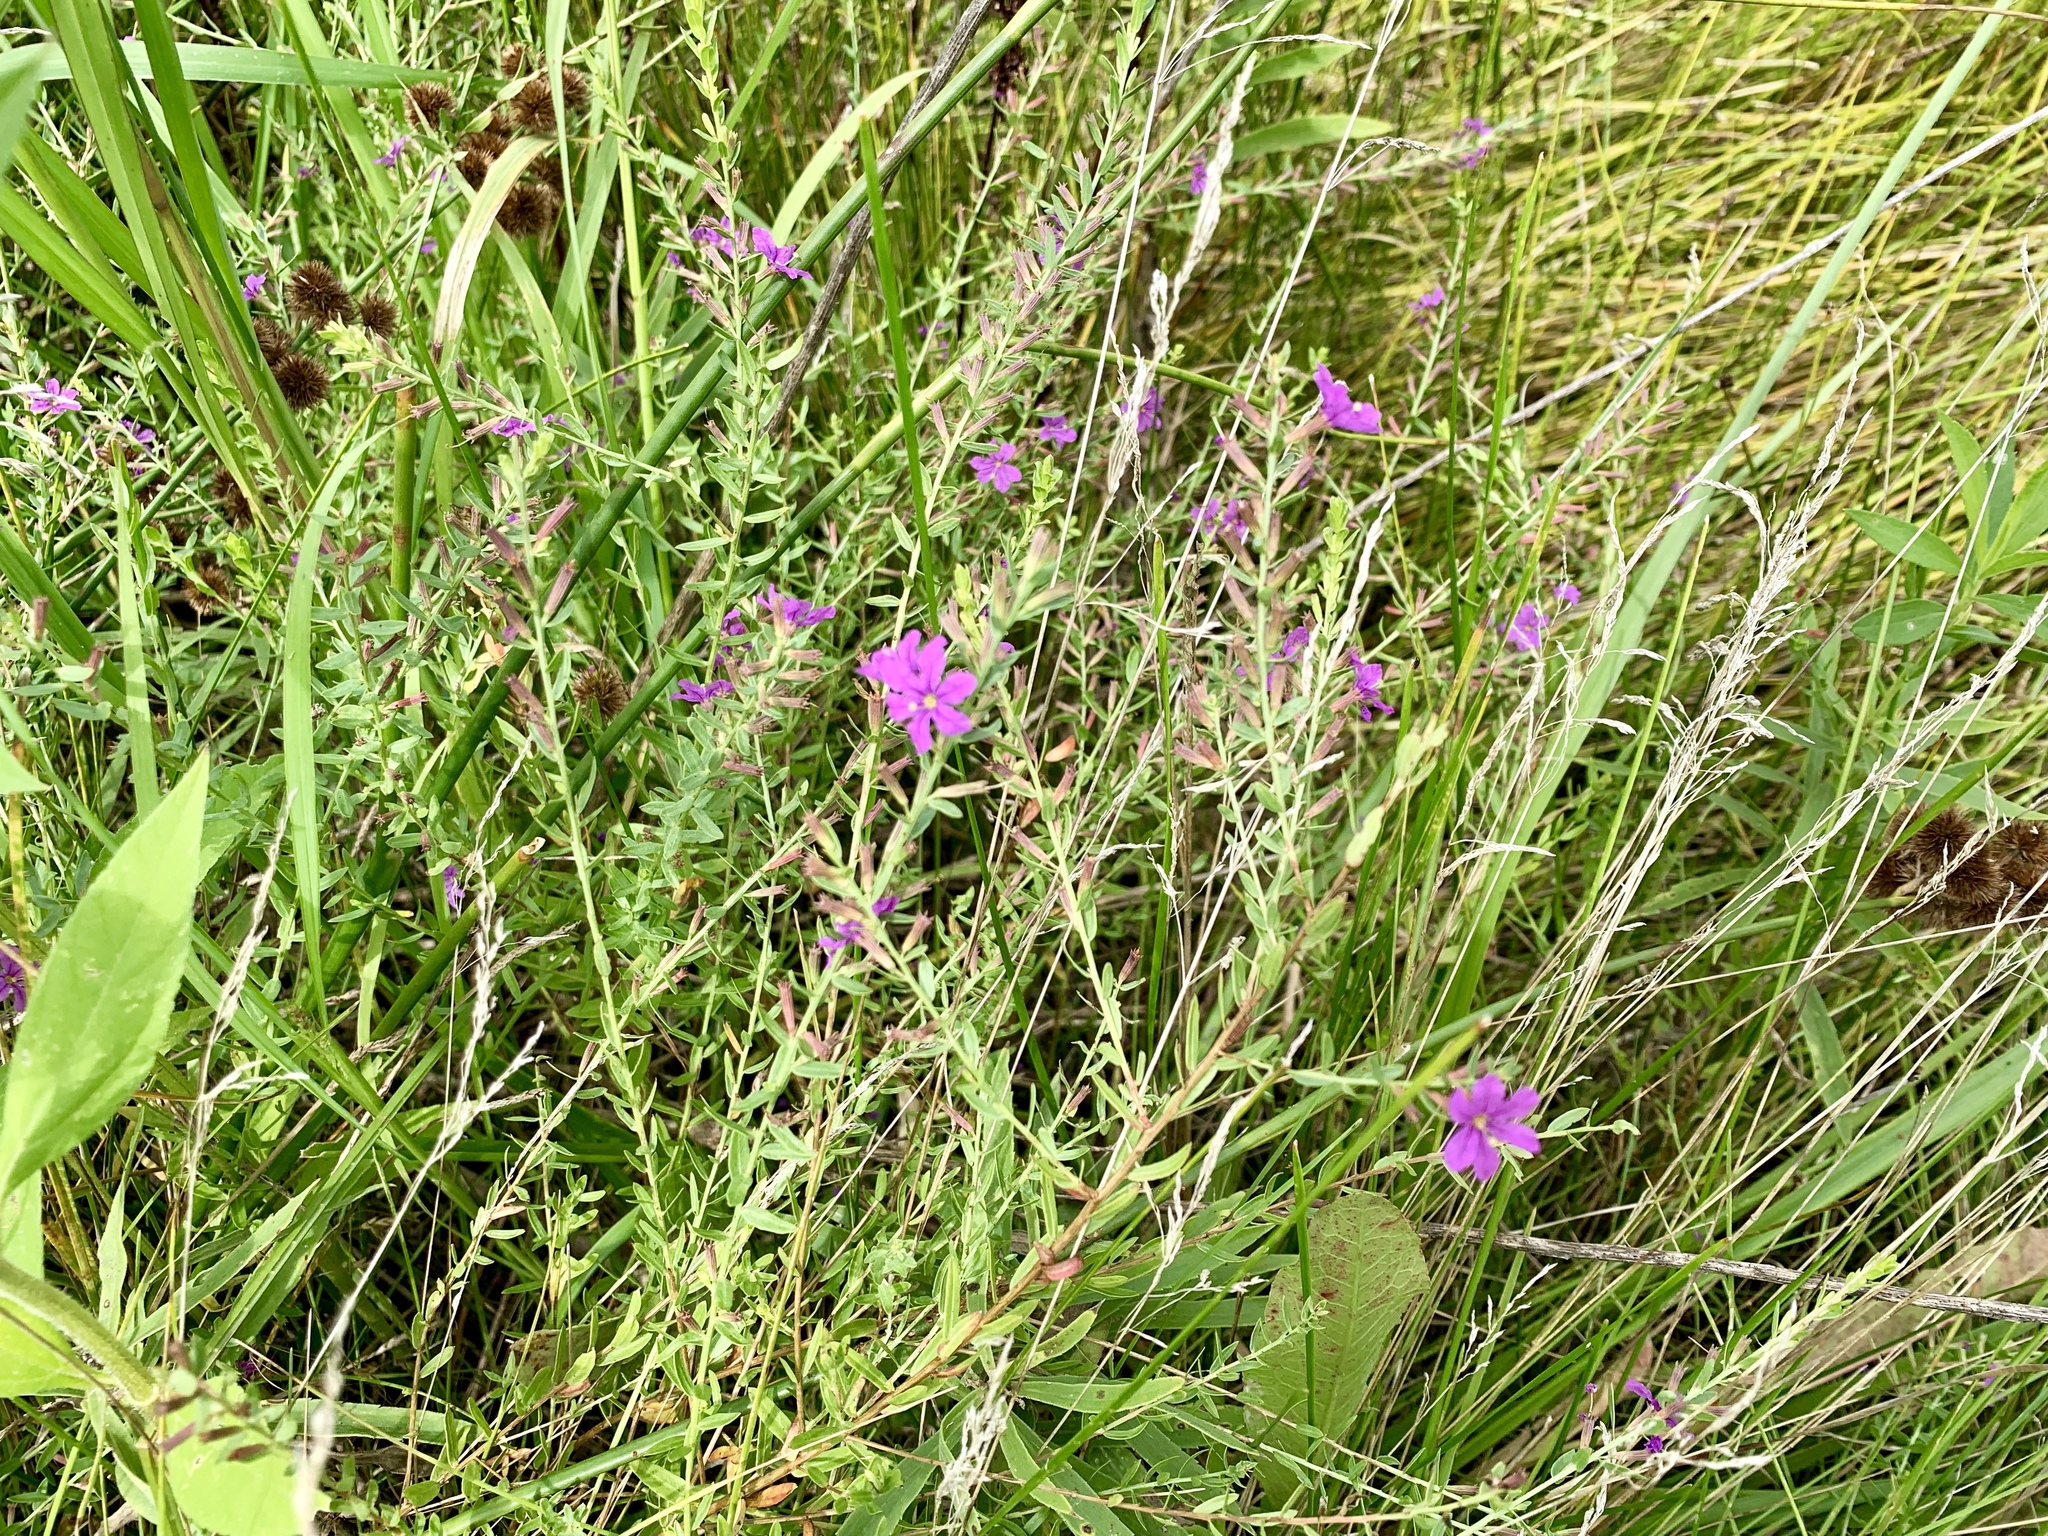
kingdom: Plantae
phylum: Tracheophyta
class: Magnoliopsida
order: Myrtales
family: Lythraceae
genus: Lythrum
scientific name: Lythrum alatum
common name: Winged loosestrife
